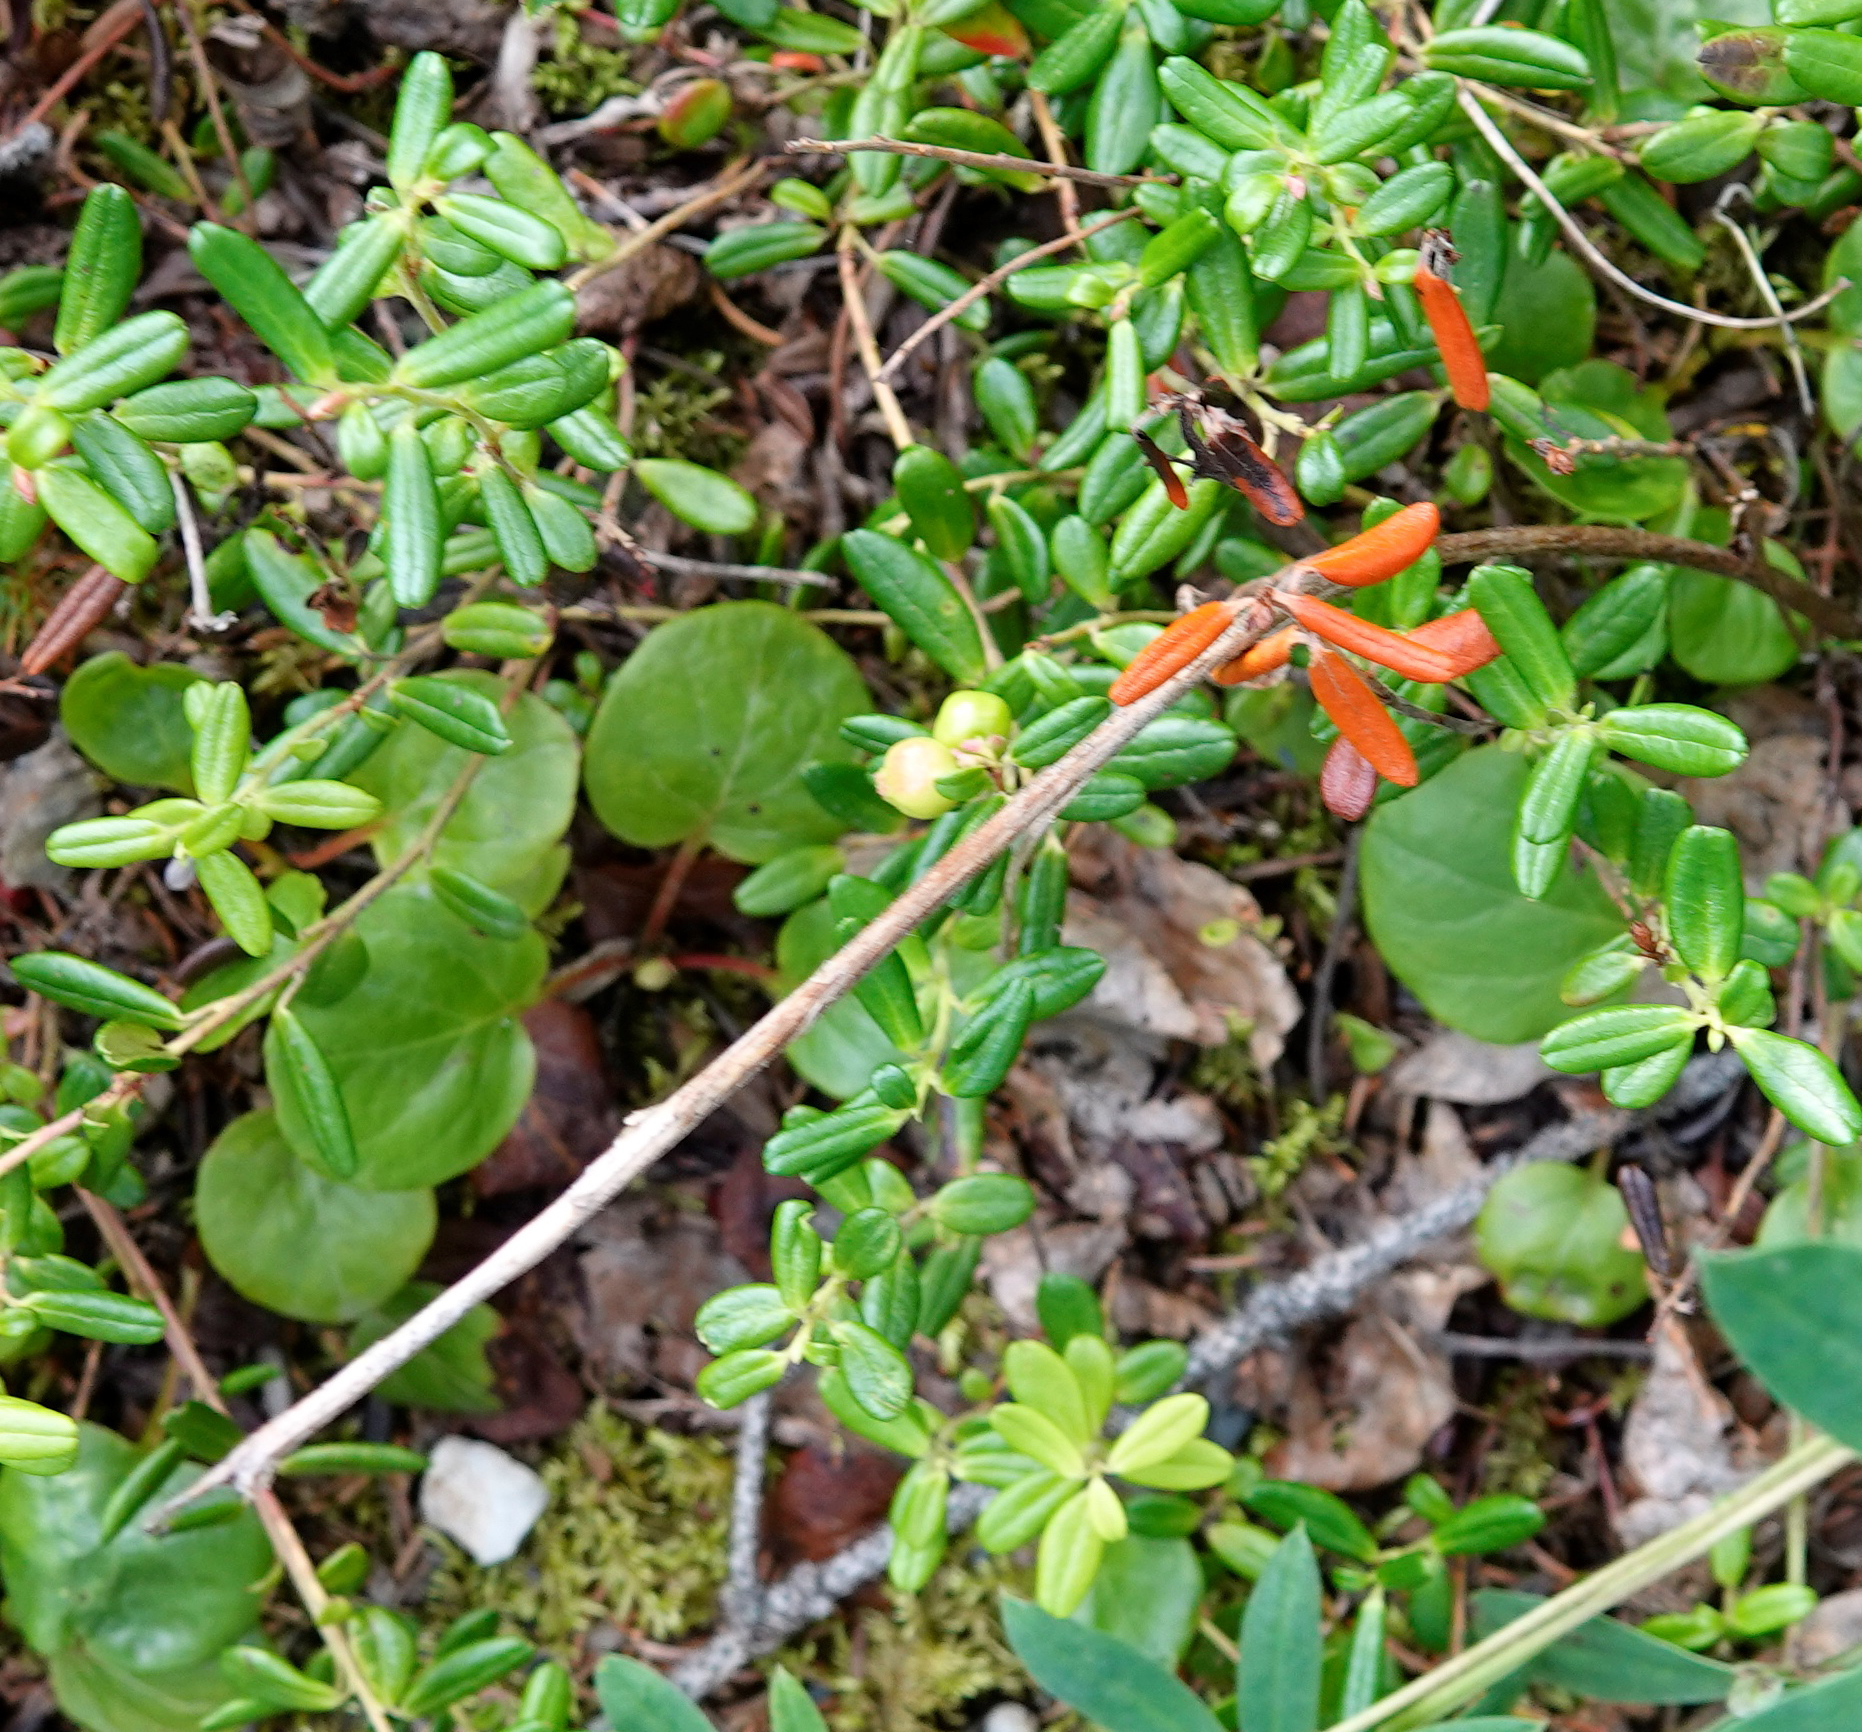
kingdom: Plantae
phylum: Tracheophyta
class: Magnoliopsida
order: Ericales
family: Ericaceae
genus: Vaccinium
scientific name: Vaccinium vitis-idaea
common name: Cowberry
